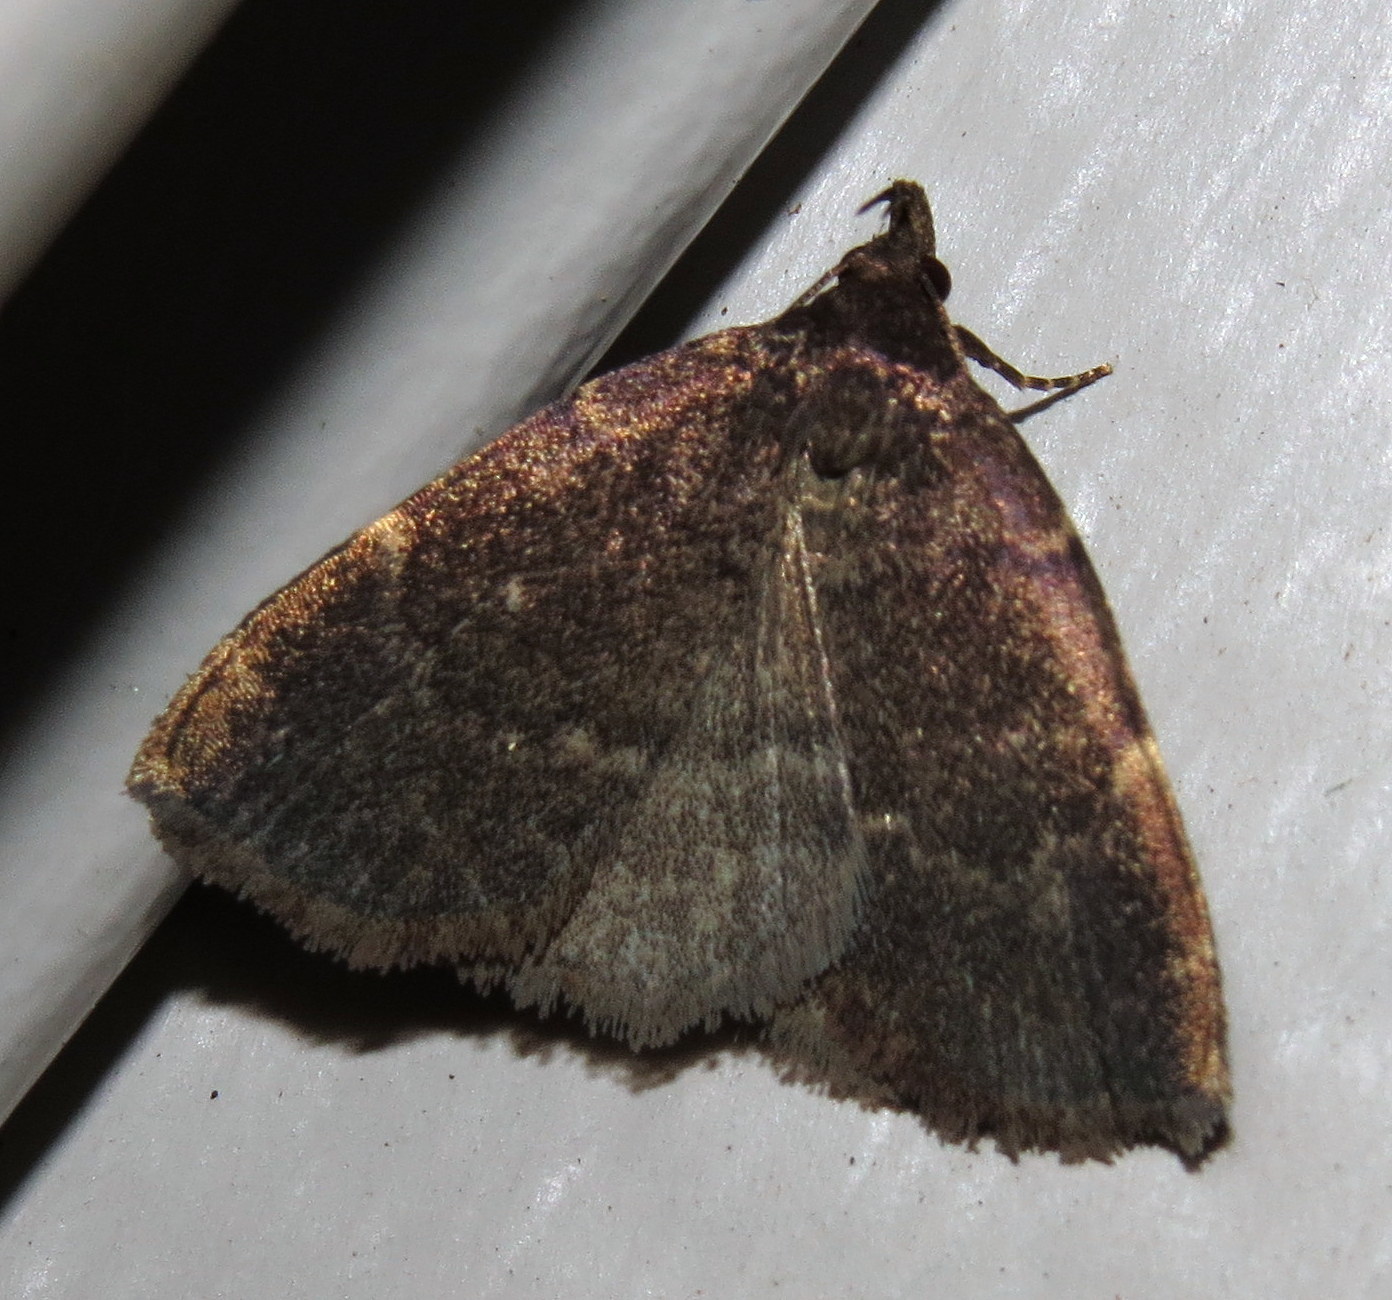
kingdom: Animalia
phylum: Arthropoda
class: Insecta
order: Lepidoptera
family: Erebidae
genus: Idia
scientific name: Idia julia
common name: Julia's idia moth
